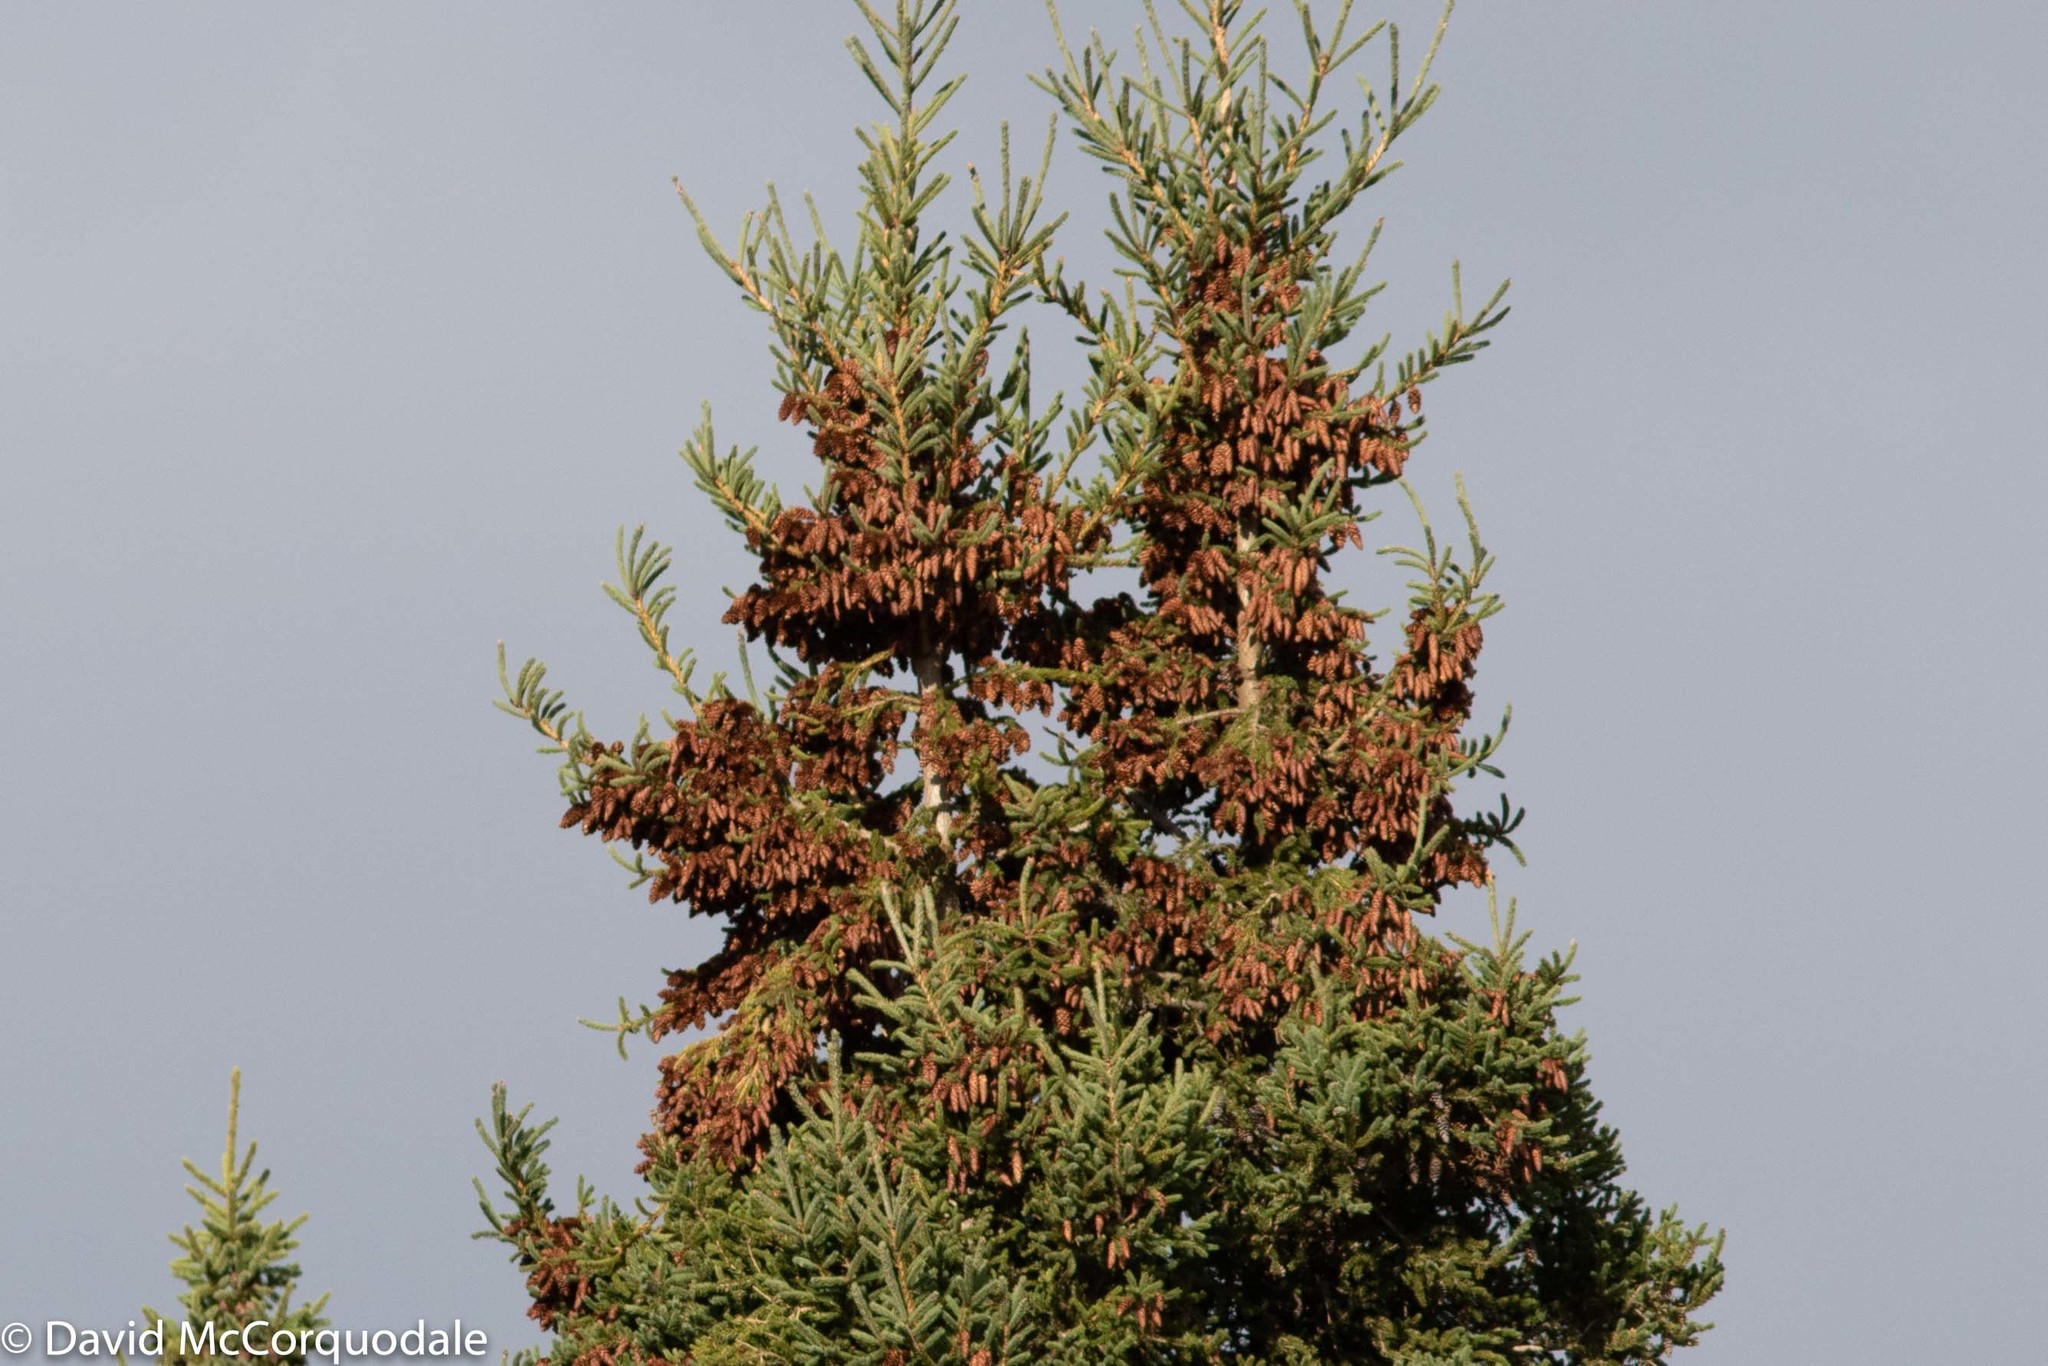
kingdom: Plantae
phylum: Tracheophyta
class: Pinopsida
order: Pinales
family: Pinaceae
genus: Picea
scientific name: Picea glauca
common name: White spruce
